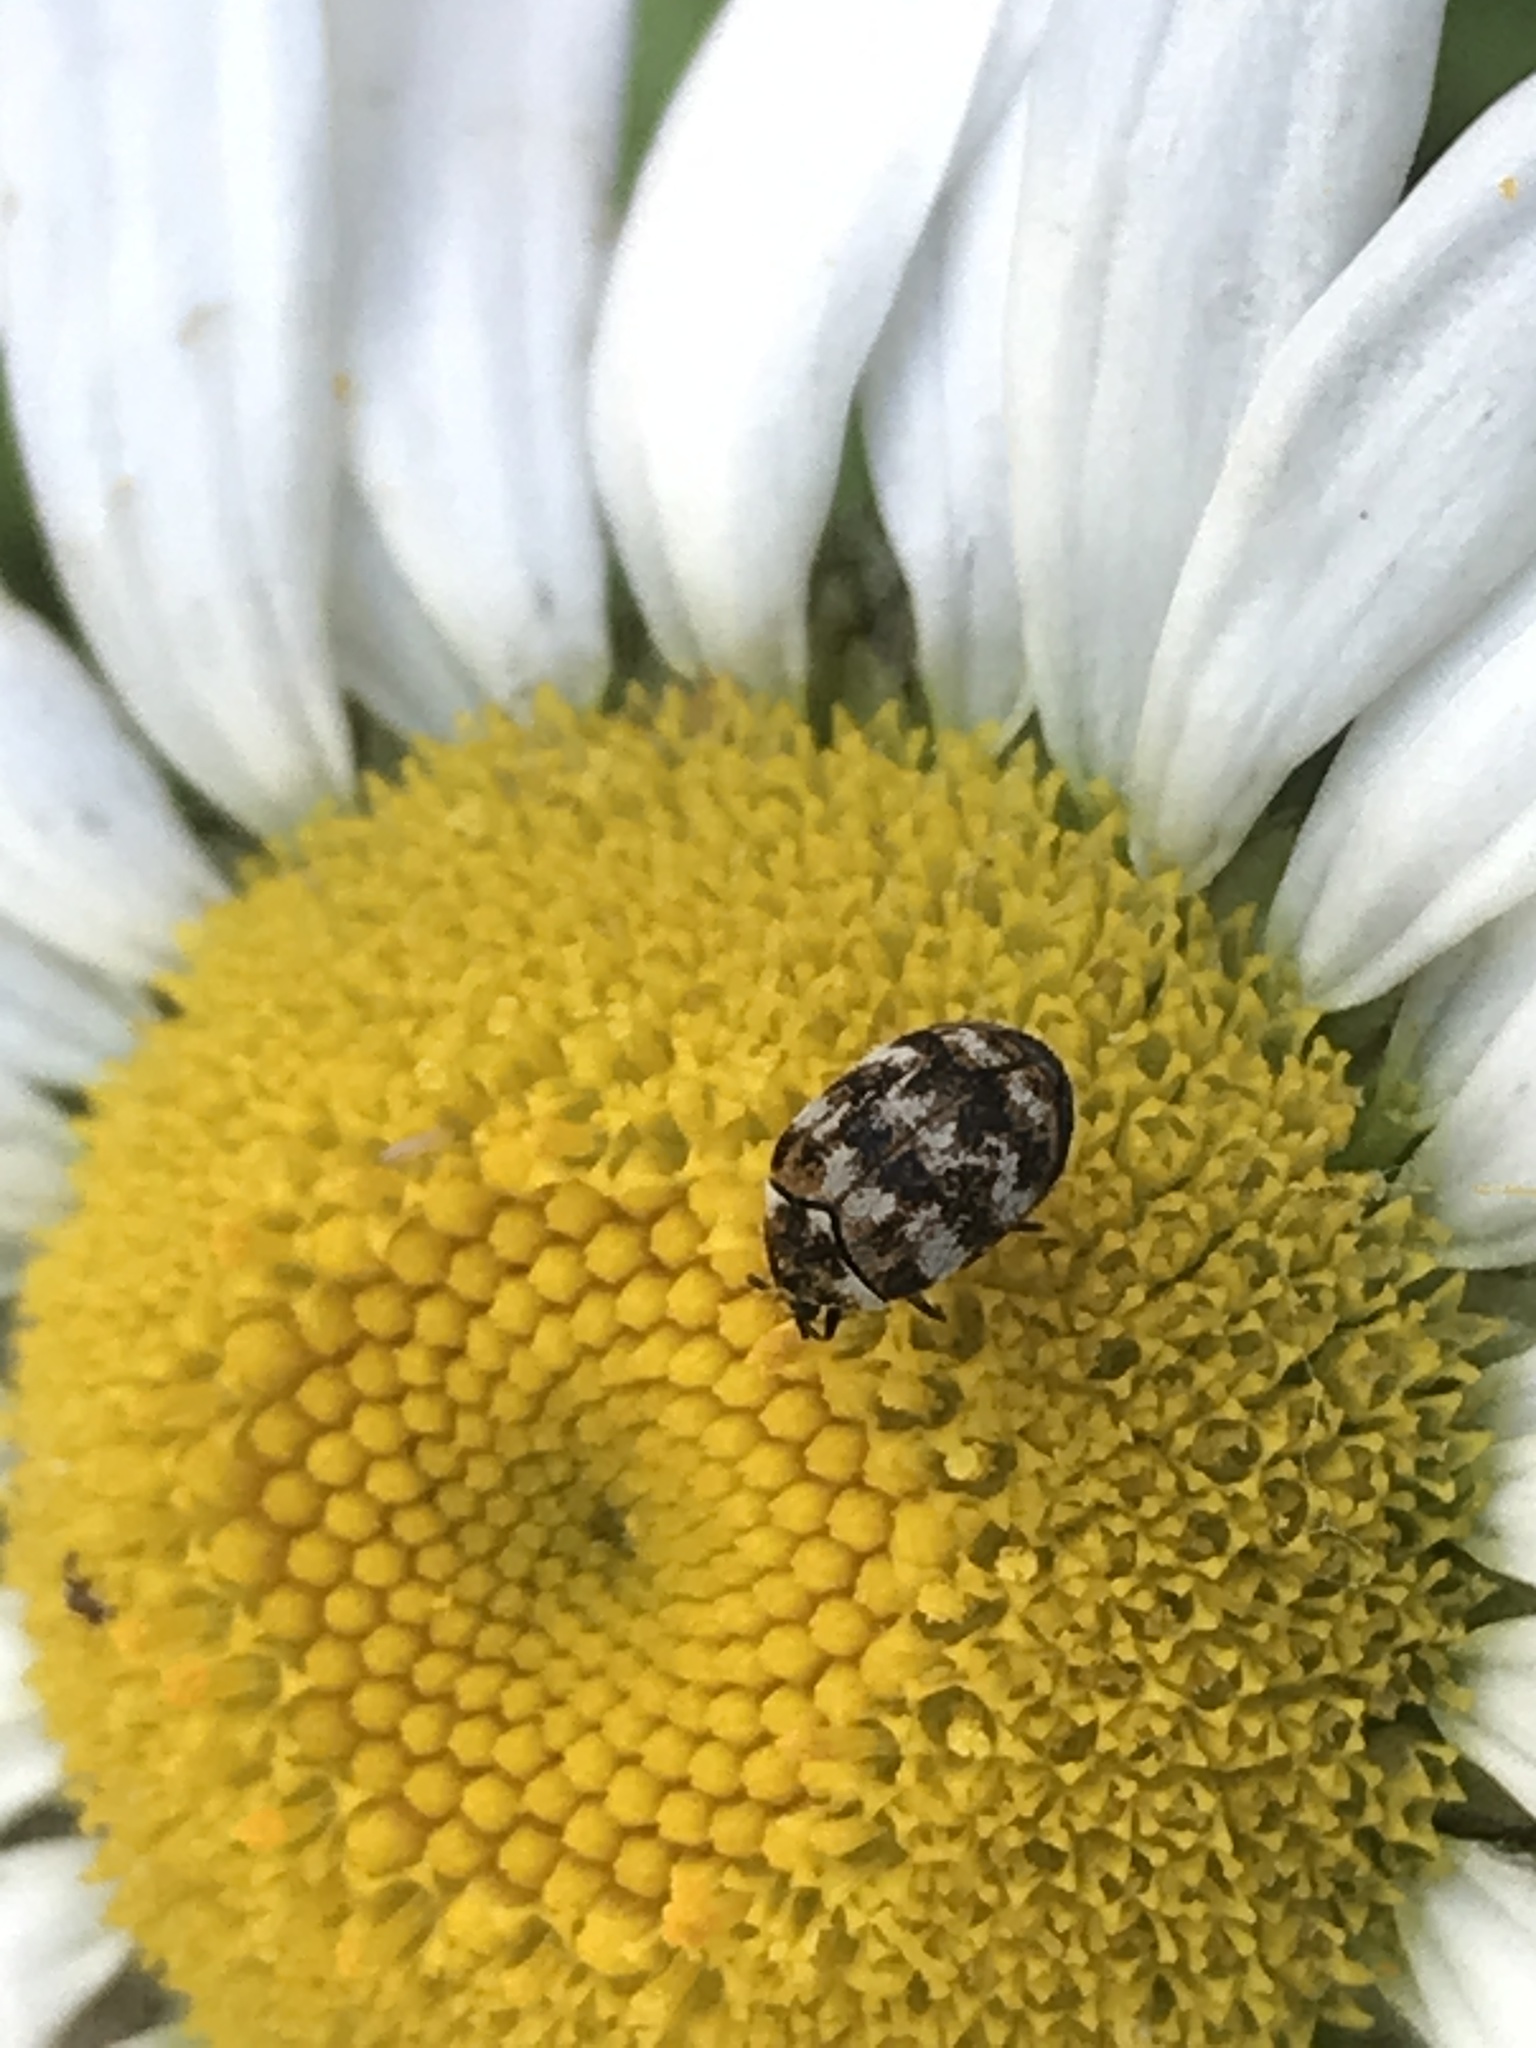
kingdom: Animalia
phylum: Arthropoda
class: Insecta
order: Coleoptera
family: Dermestidae
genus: Anthrenus
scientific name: Anthrenus verbasci
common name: Varied carpet beetle
